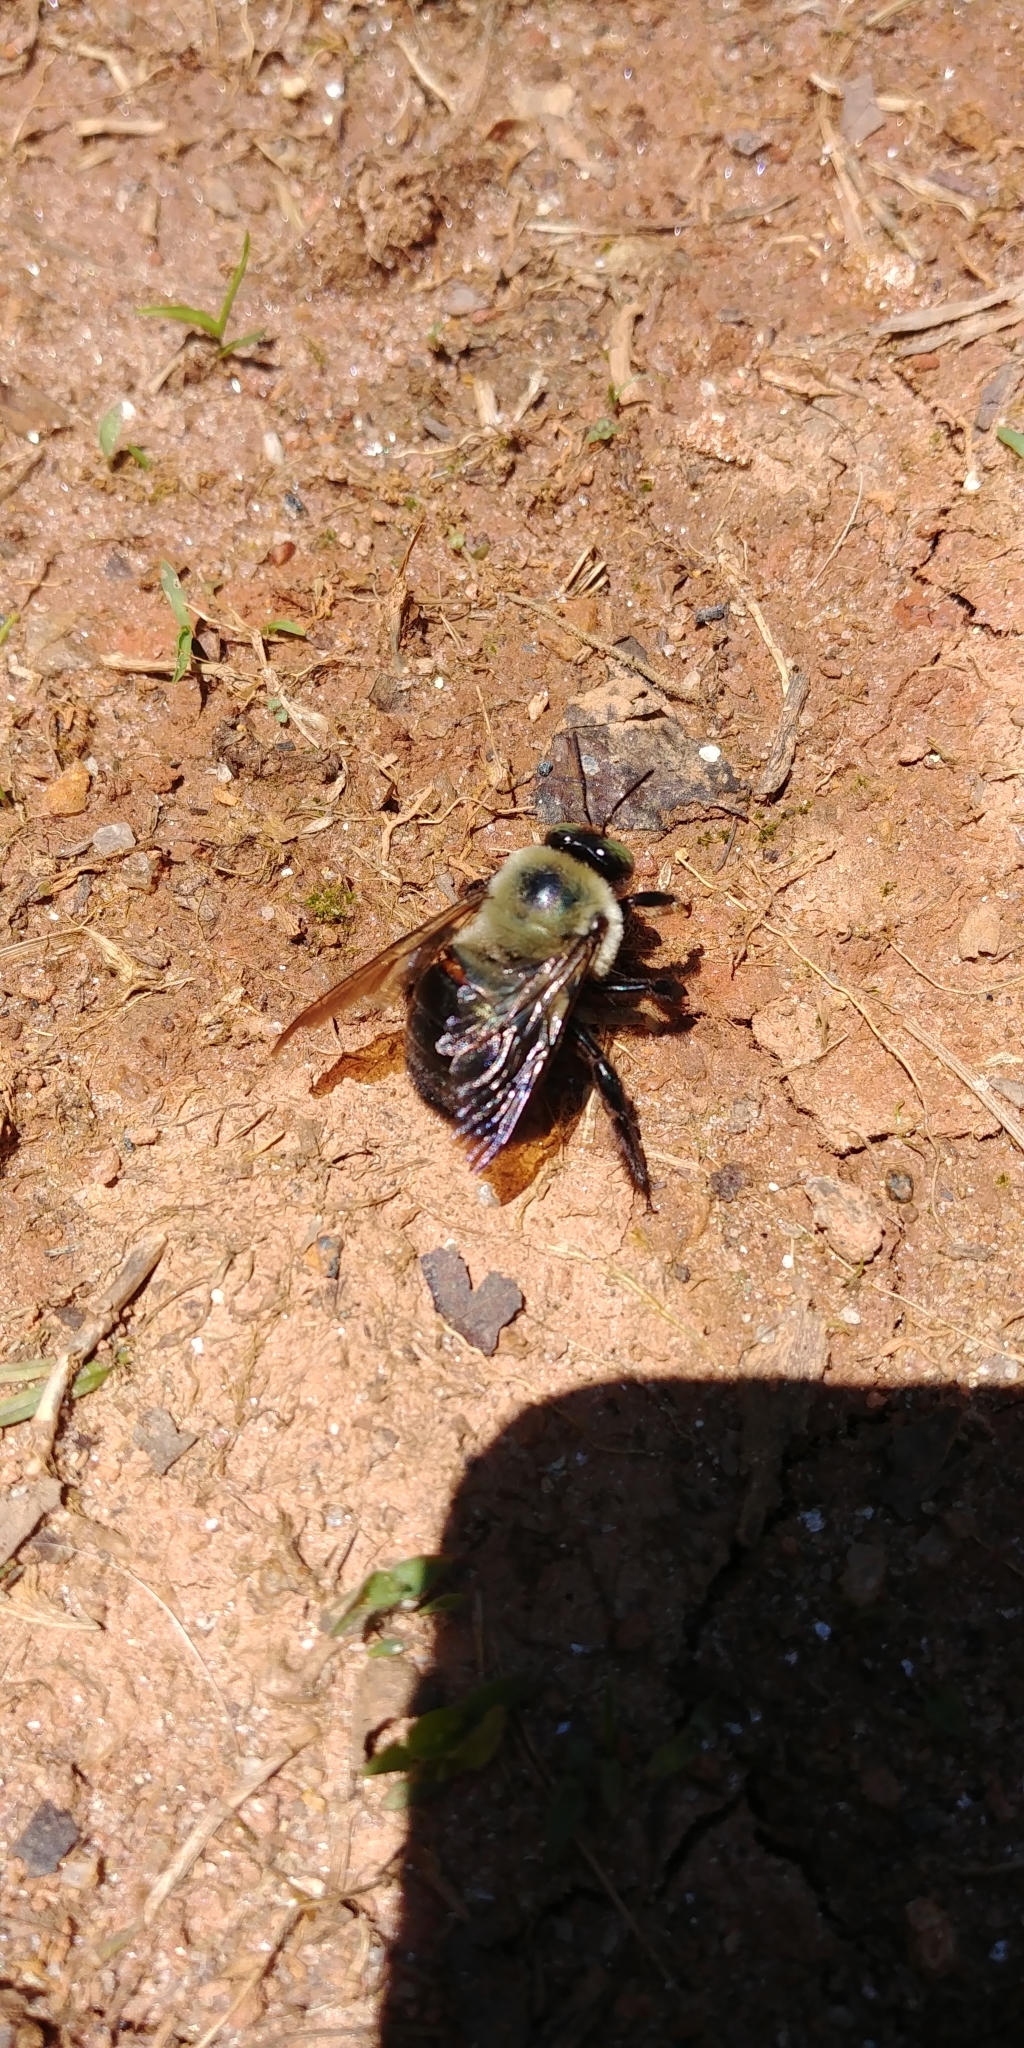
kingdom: Animalia
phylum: Arthropoda
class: Insecta
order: Hymenoptera
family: Apidae
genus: Xylocopa
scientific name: Xylocopa virginica
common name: Carpenter bee
